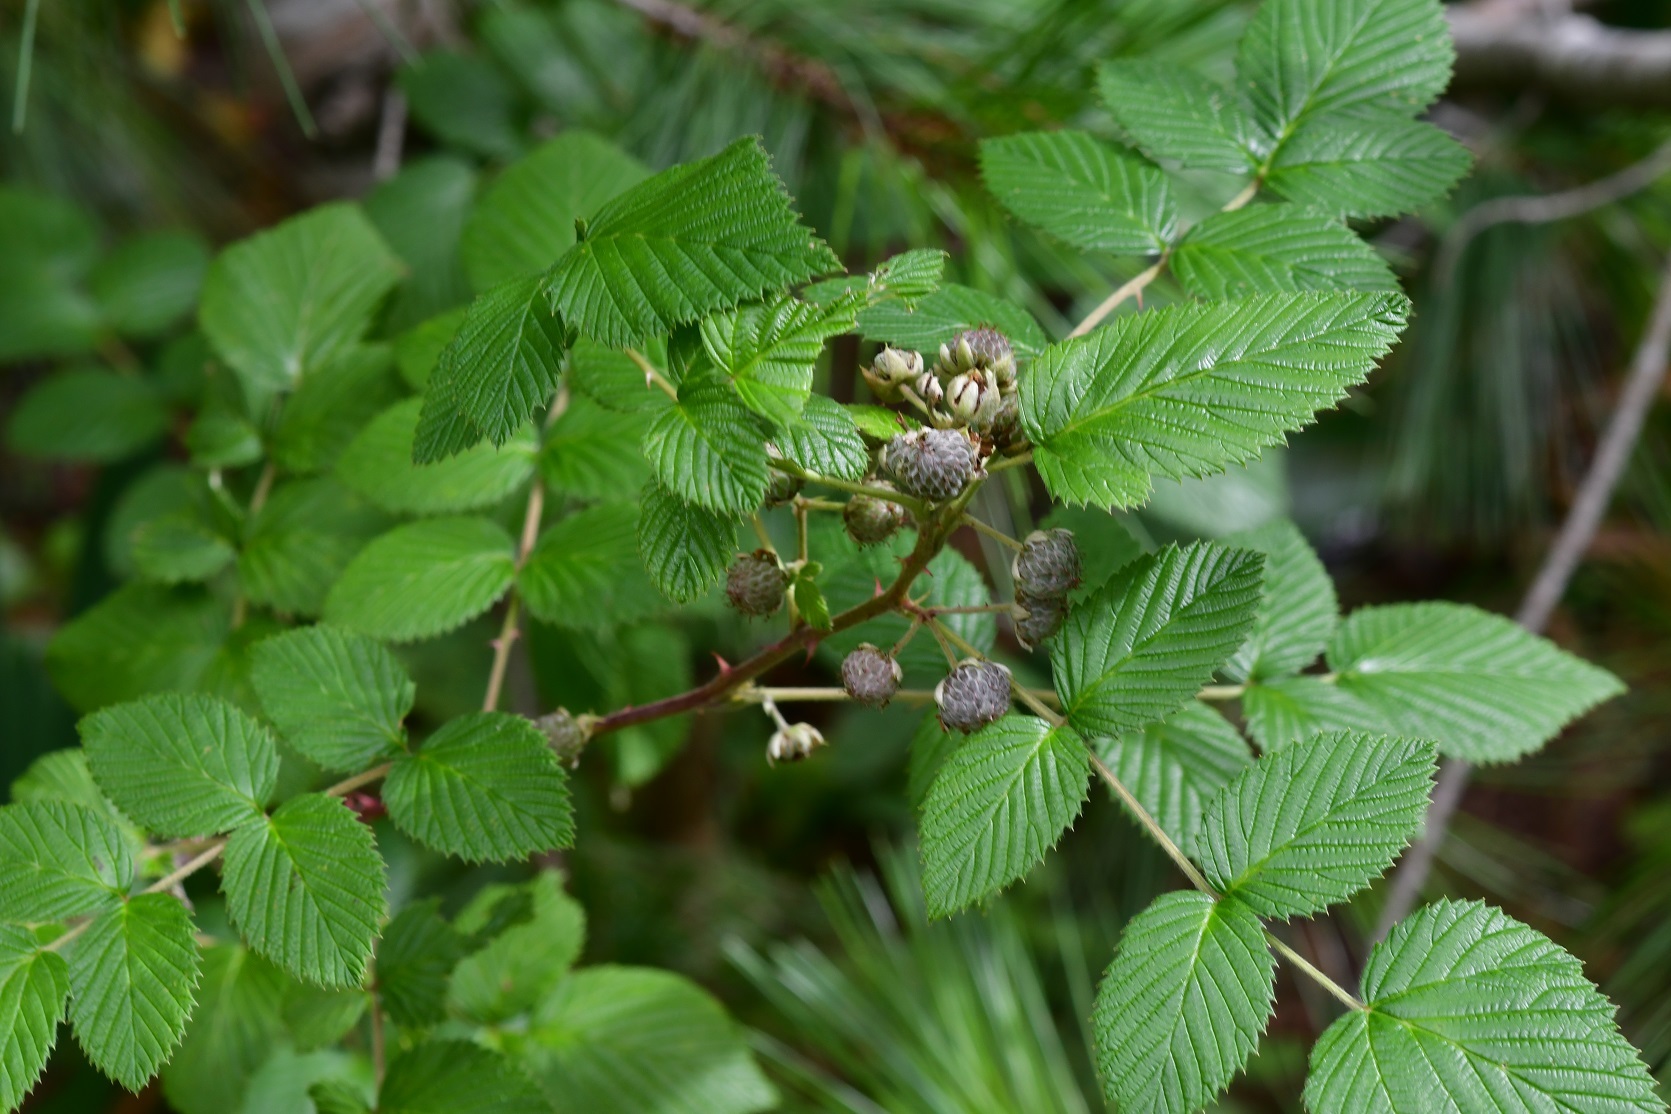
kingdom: Plantae
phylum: Tracheophyta
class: Magnoliopsida
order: Rosales
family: Rosaceae
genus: Rubus
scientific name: Rubus niveus
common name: Snowpeaks raspberry
